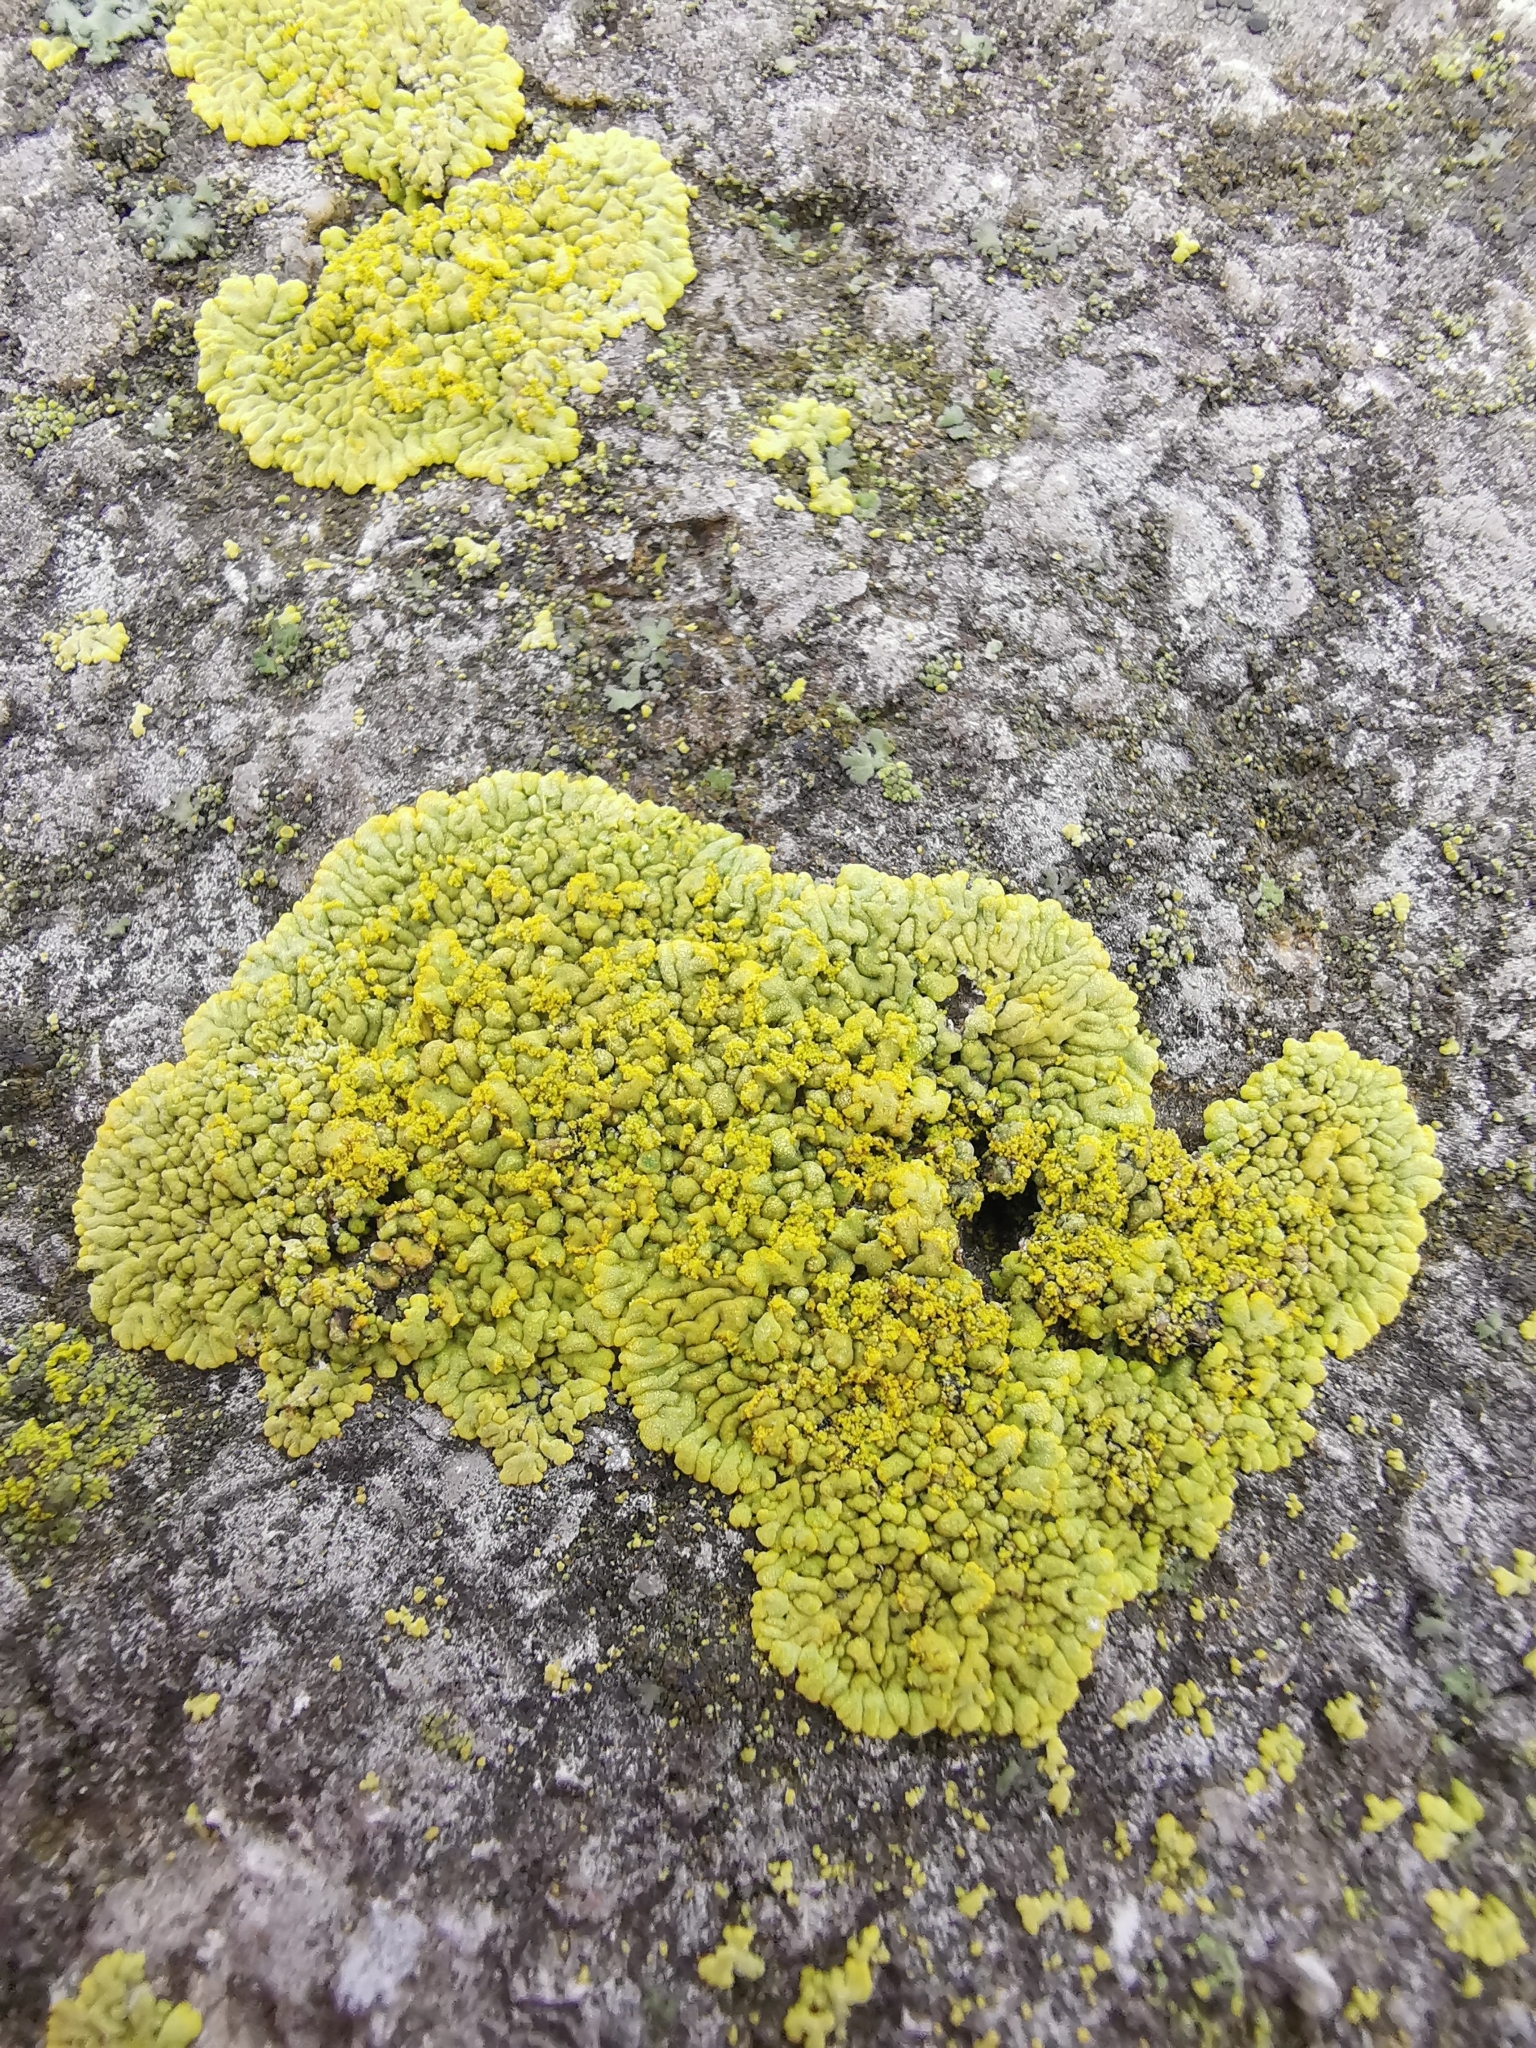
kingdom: Fungi
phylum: Ascomycota
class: Lecanoromycetes
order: Teloschistales
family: Teloschistaceae
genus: Calogaya
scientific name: Calogaya decipiens
